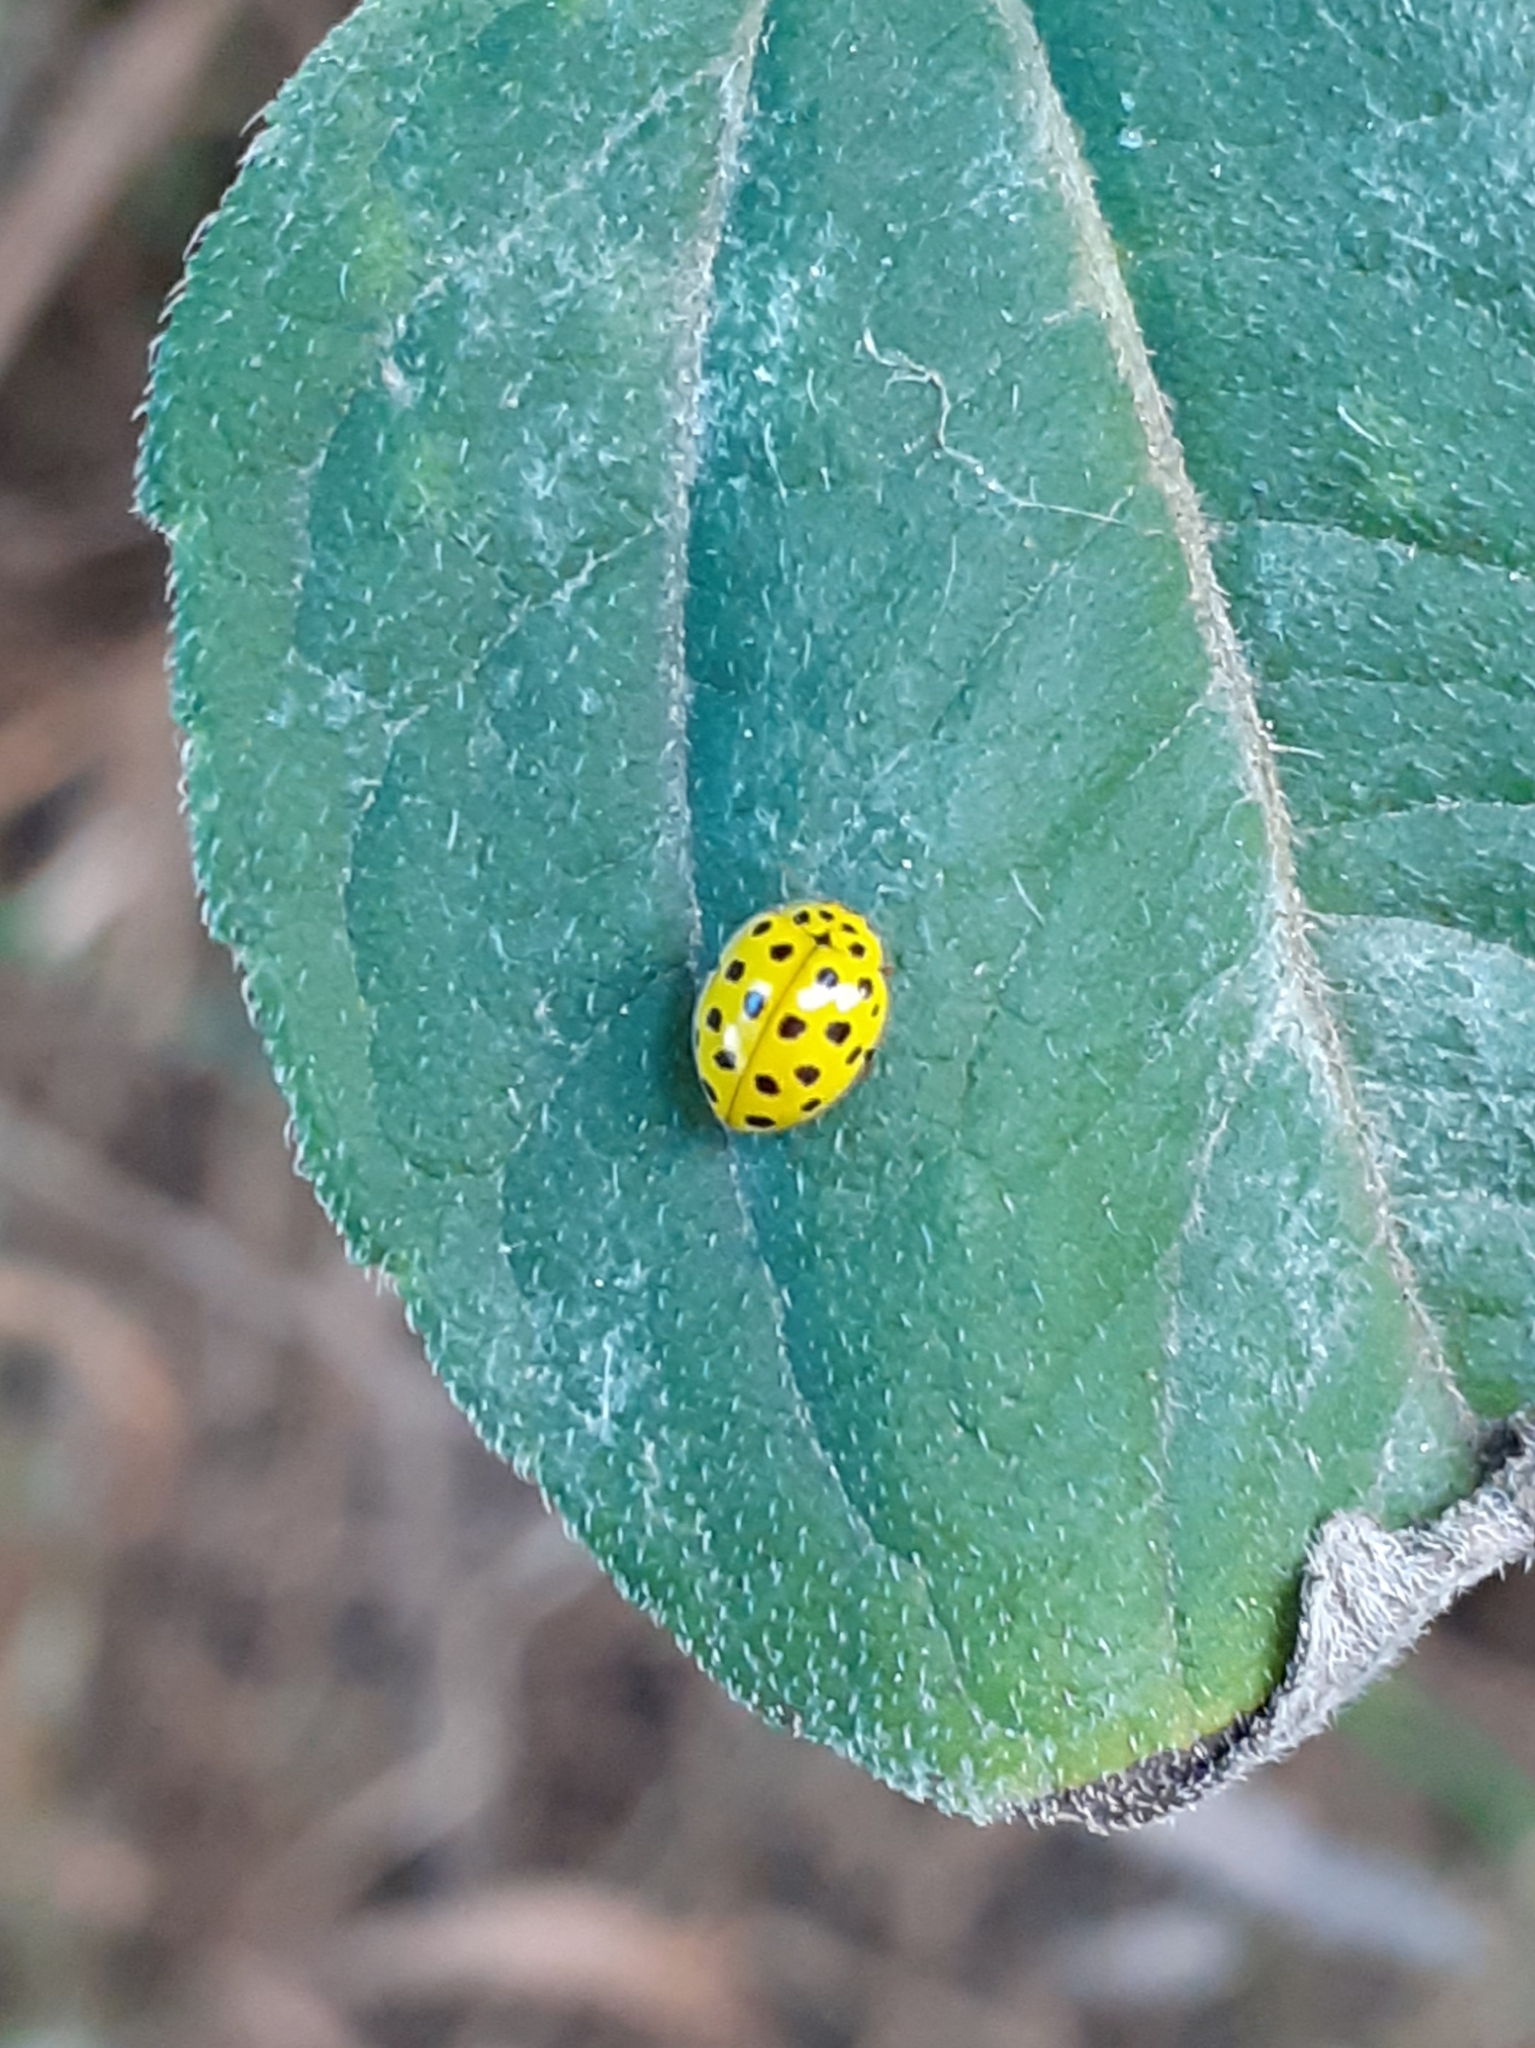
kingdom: Animalia
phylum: Arthropoda
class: Insecta
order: Coleoptera
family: Coccinellidae
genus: Psyllobora
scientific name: Psyllobora vigintiduopunctata
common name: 22-spot ladybird
